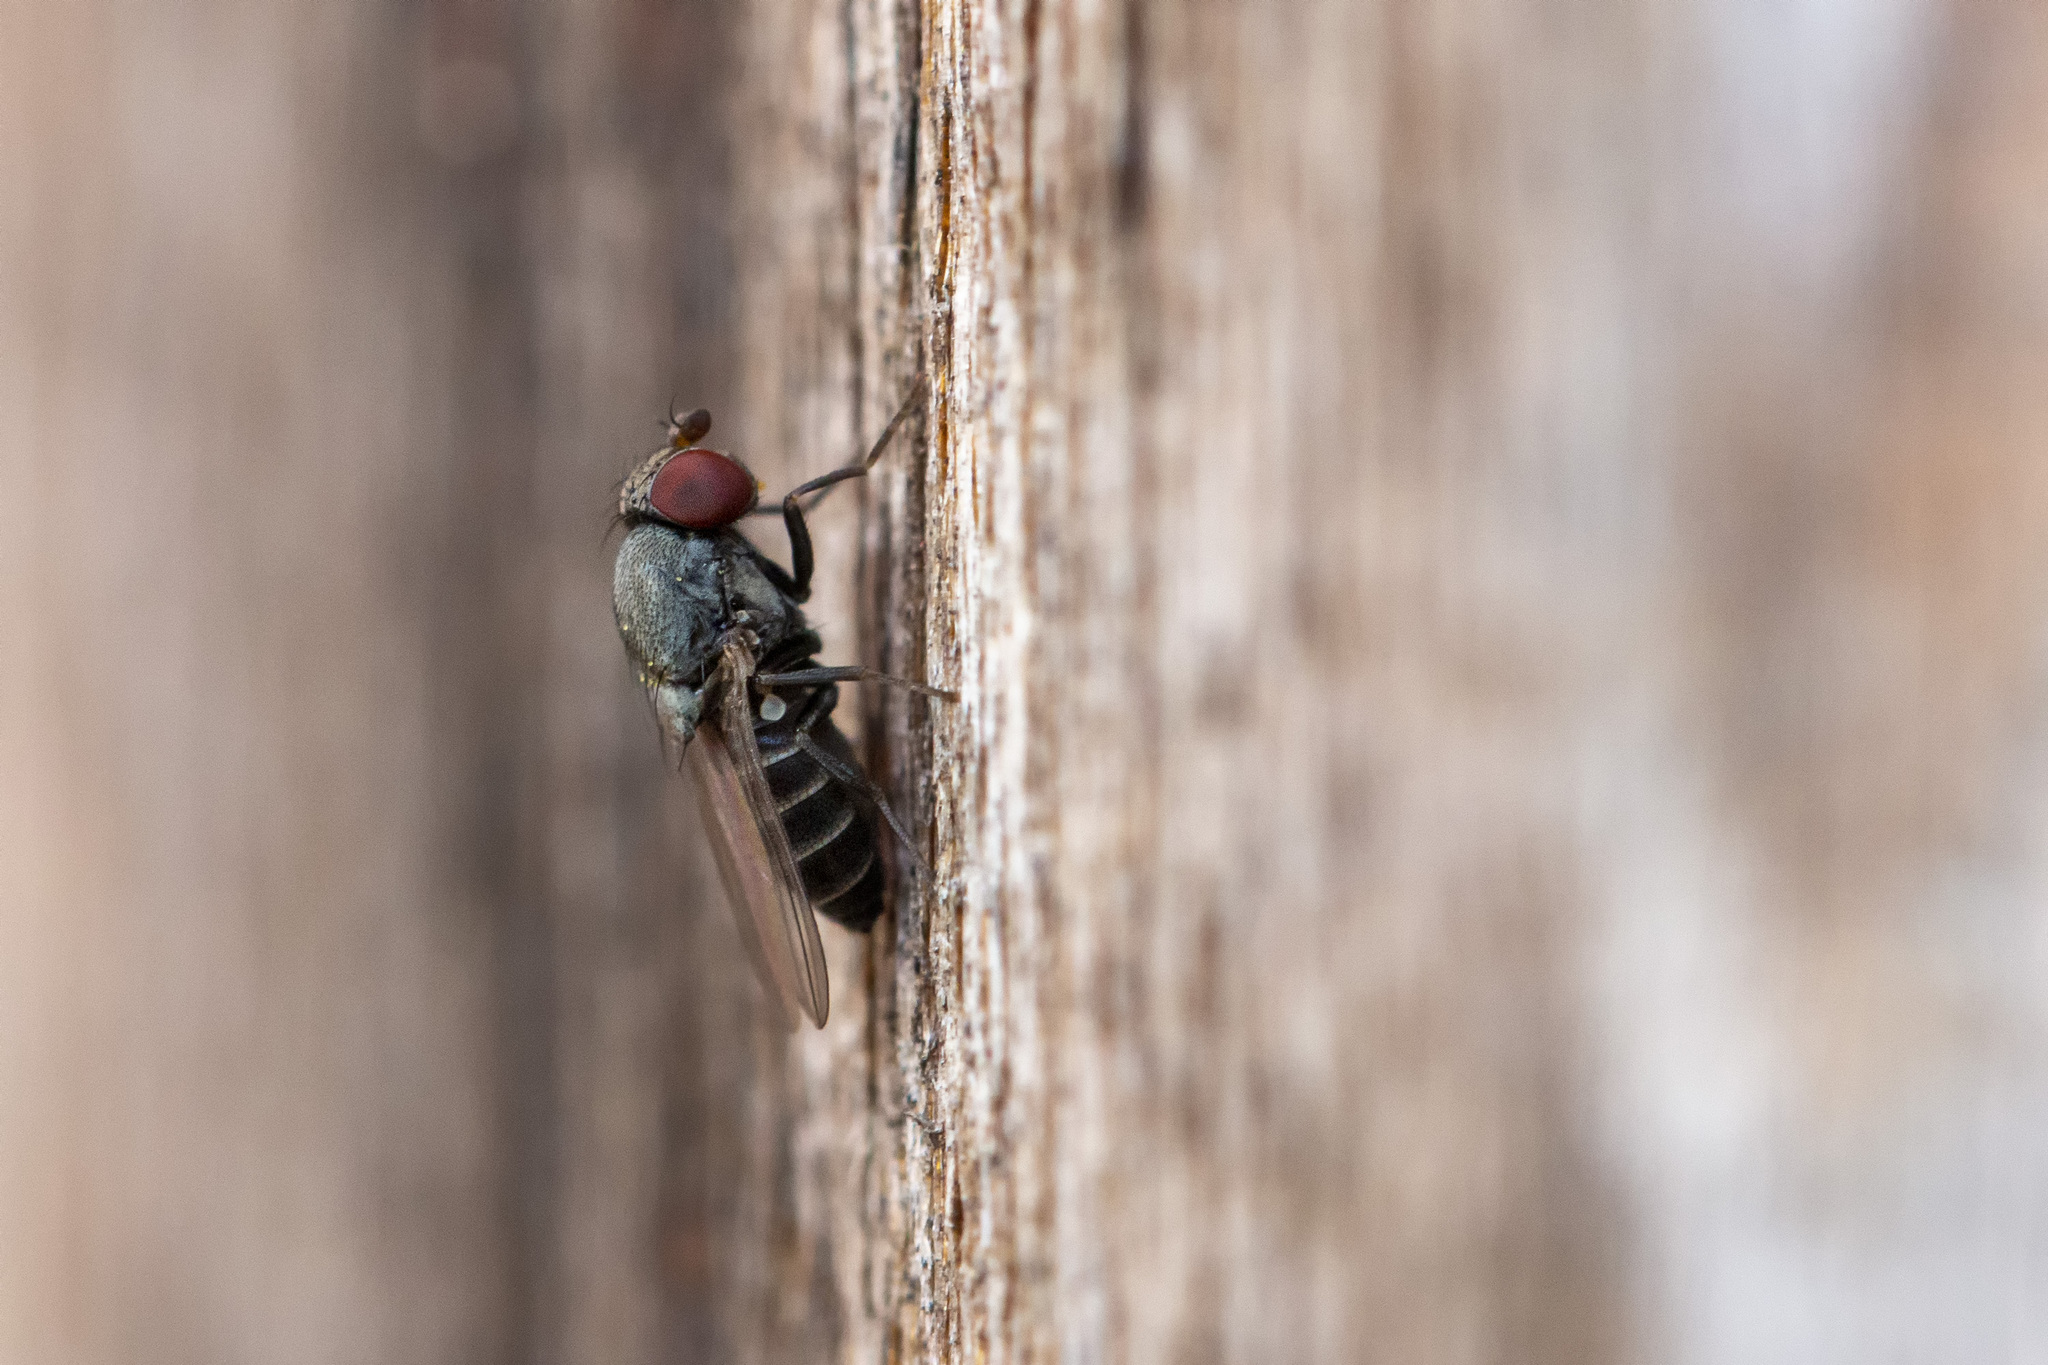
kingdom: Animalia
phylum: Arthropoda
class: Insecta
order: Diptera
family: Drosophilidae
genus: Cacoxenus
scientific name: Cacoxenus indagator
